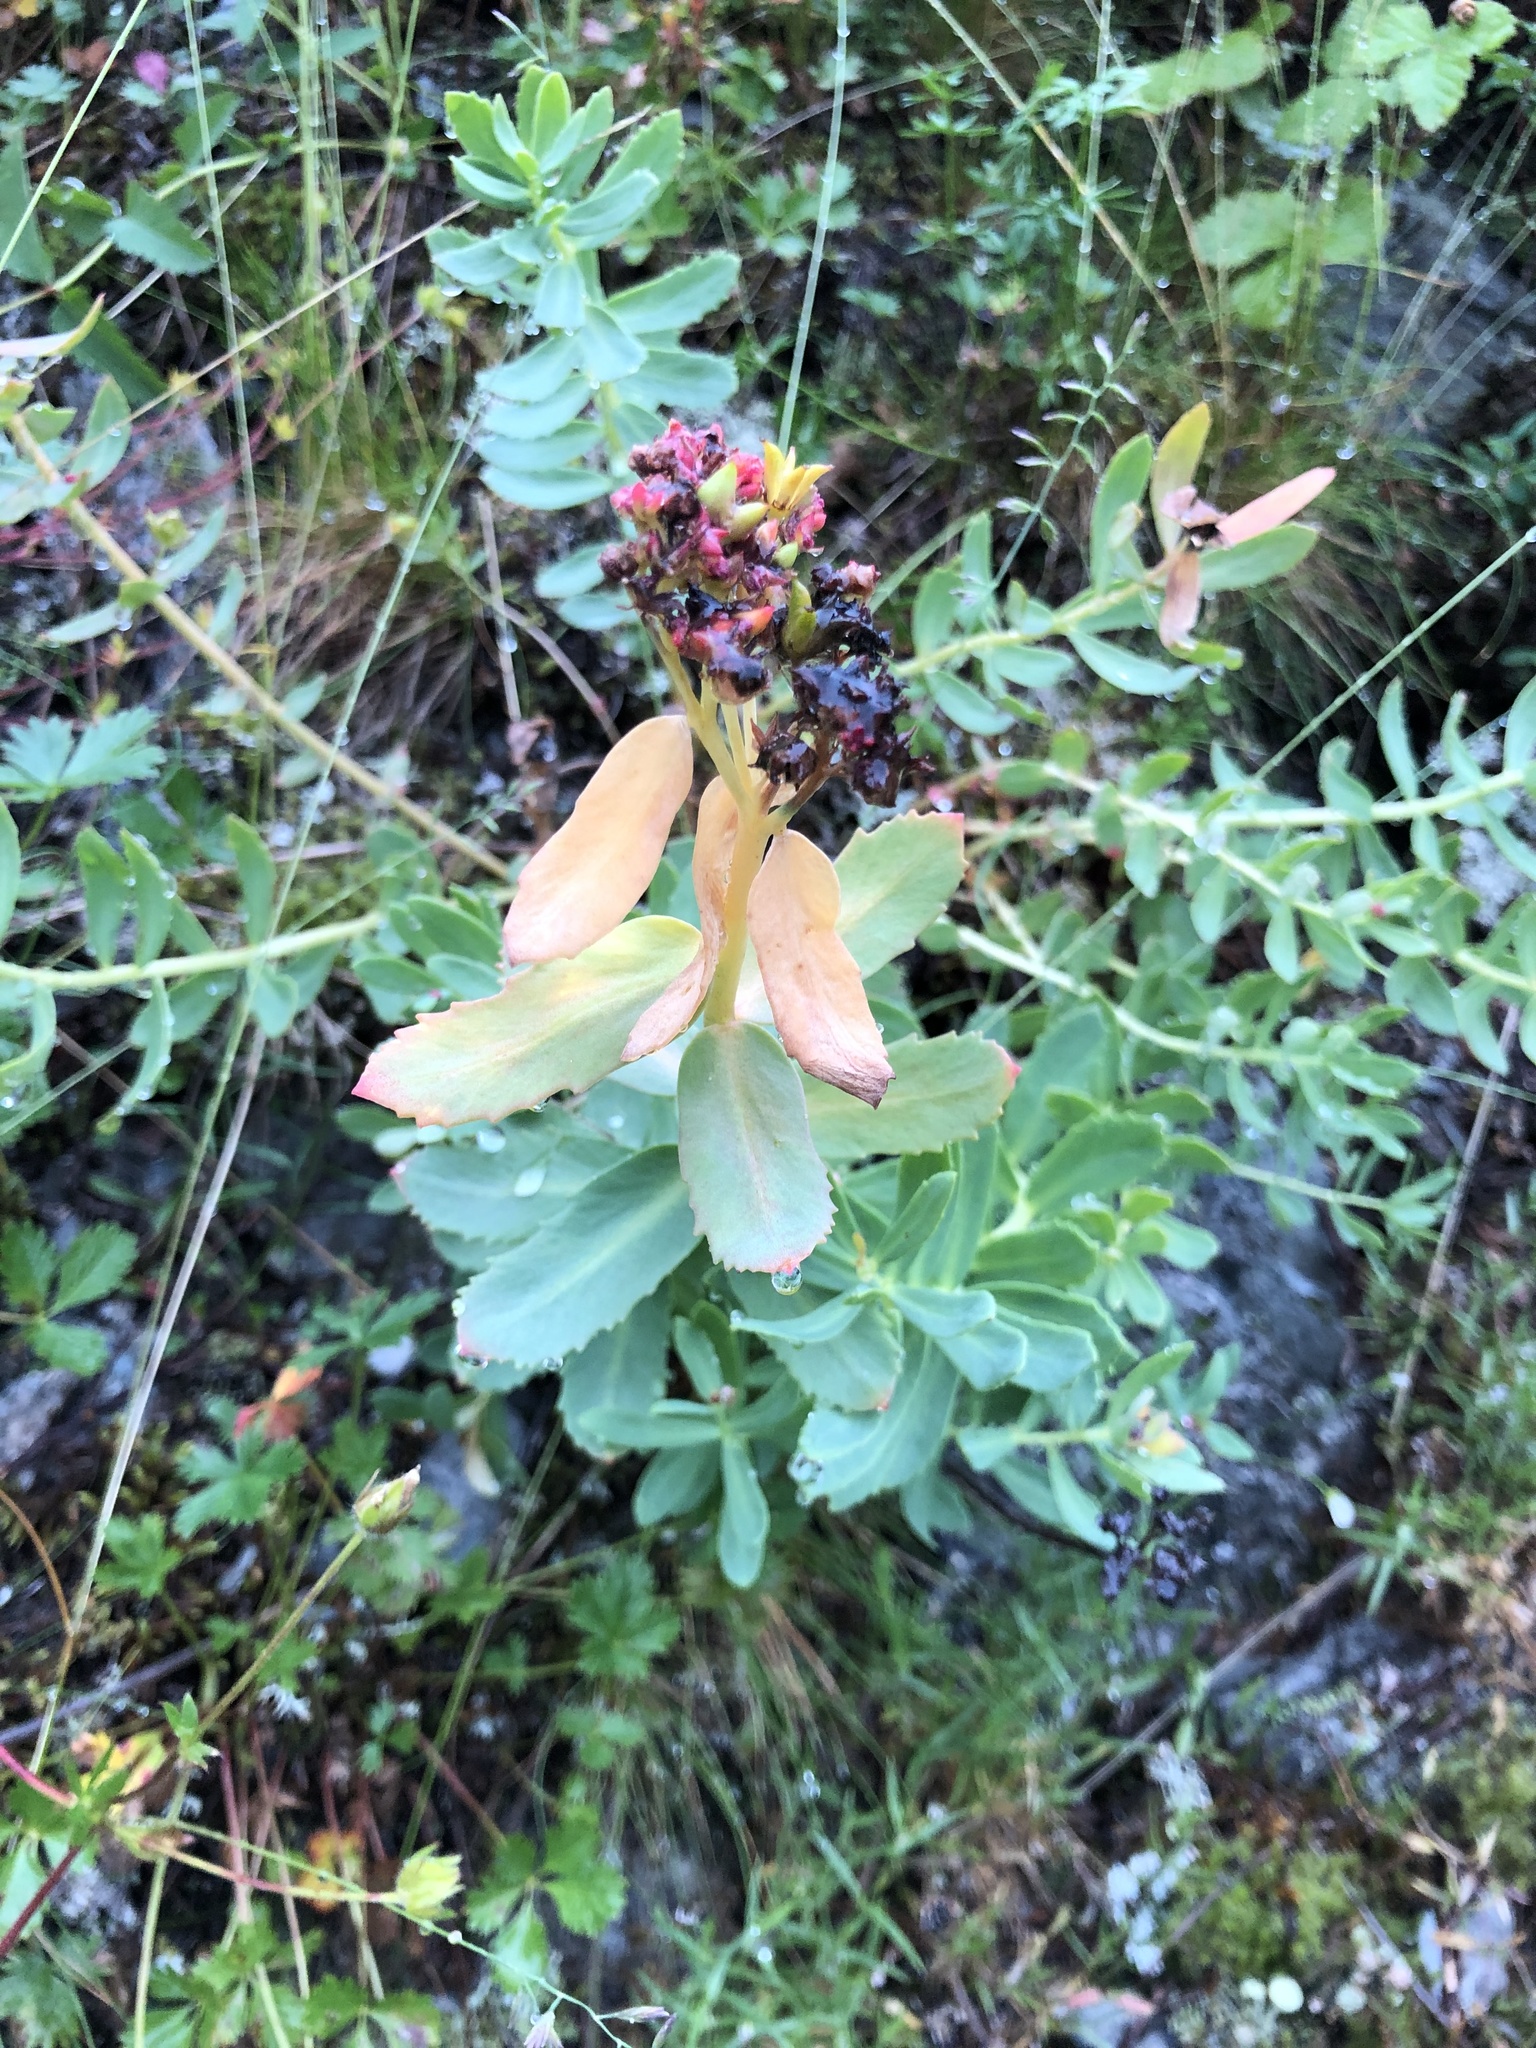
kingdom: Plantae
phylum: Tracheophyta
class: Magnoliopsida
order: Saxifragales
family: Crassulaceae
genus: Rhodiola
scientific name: Rhodiola rosea
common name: Roseroot
